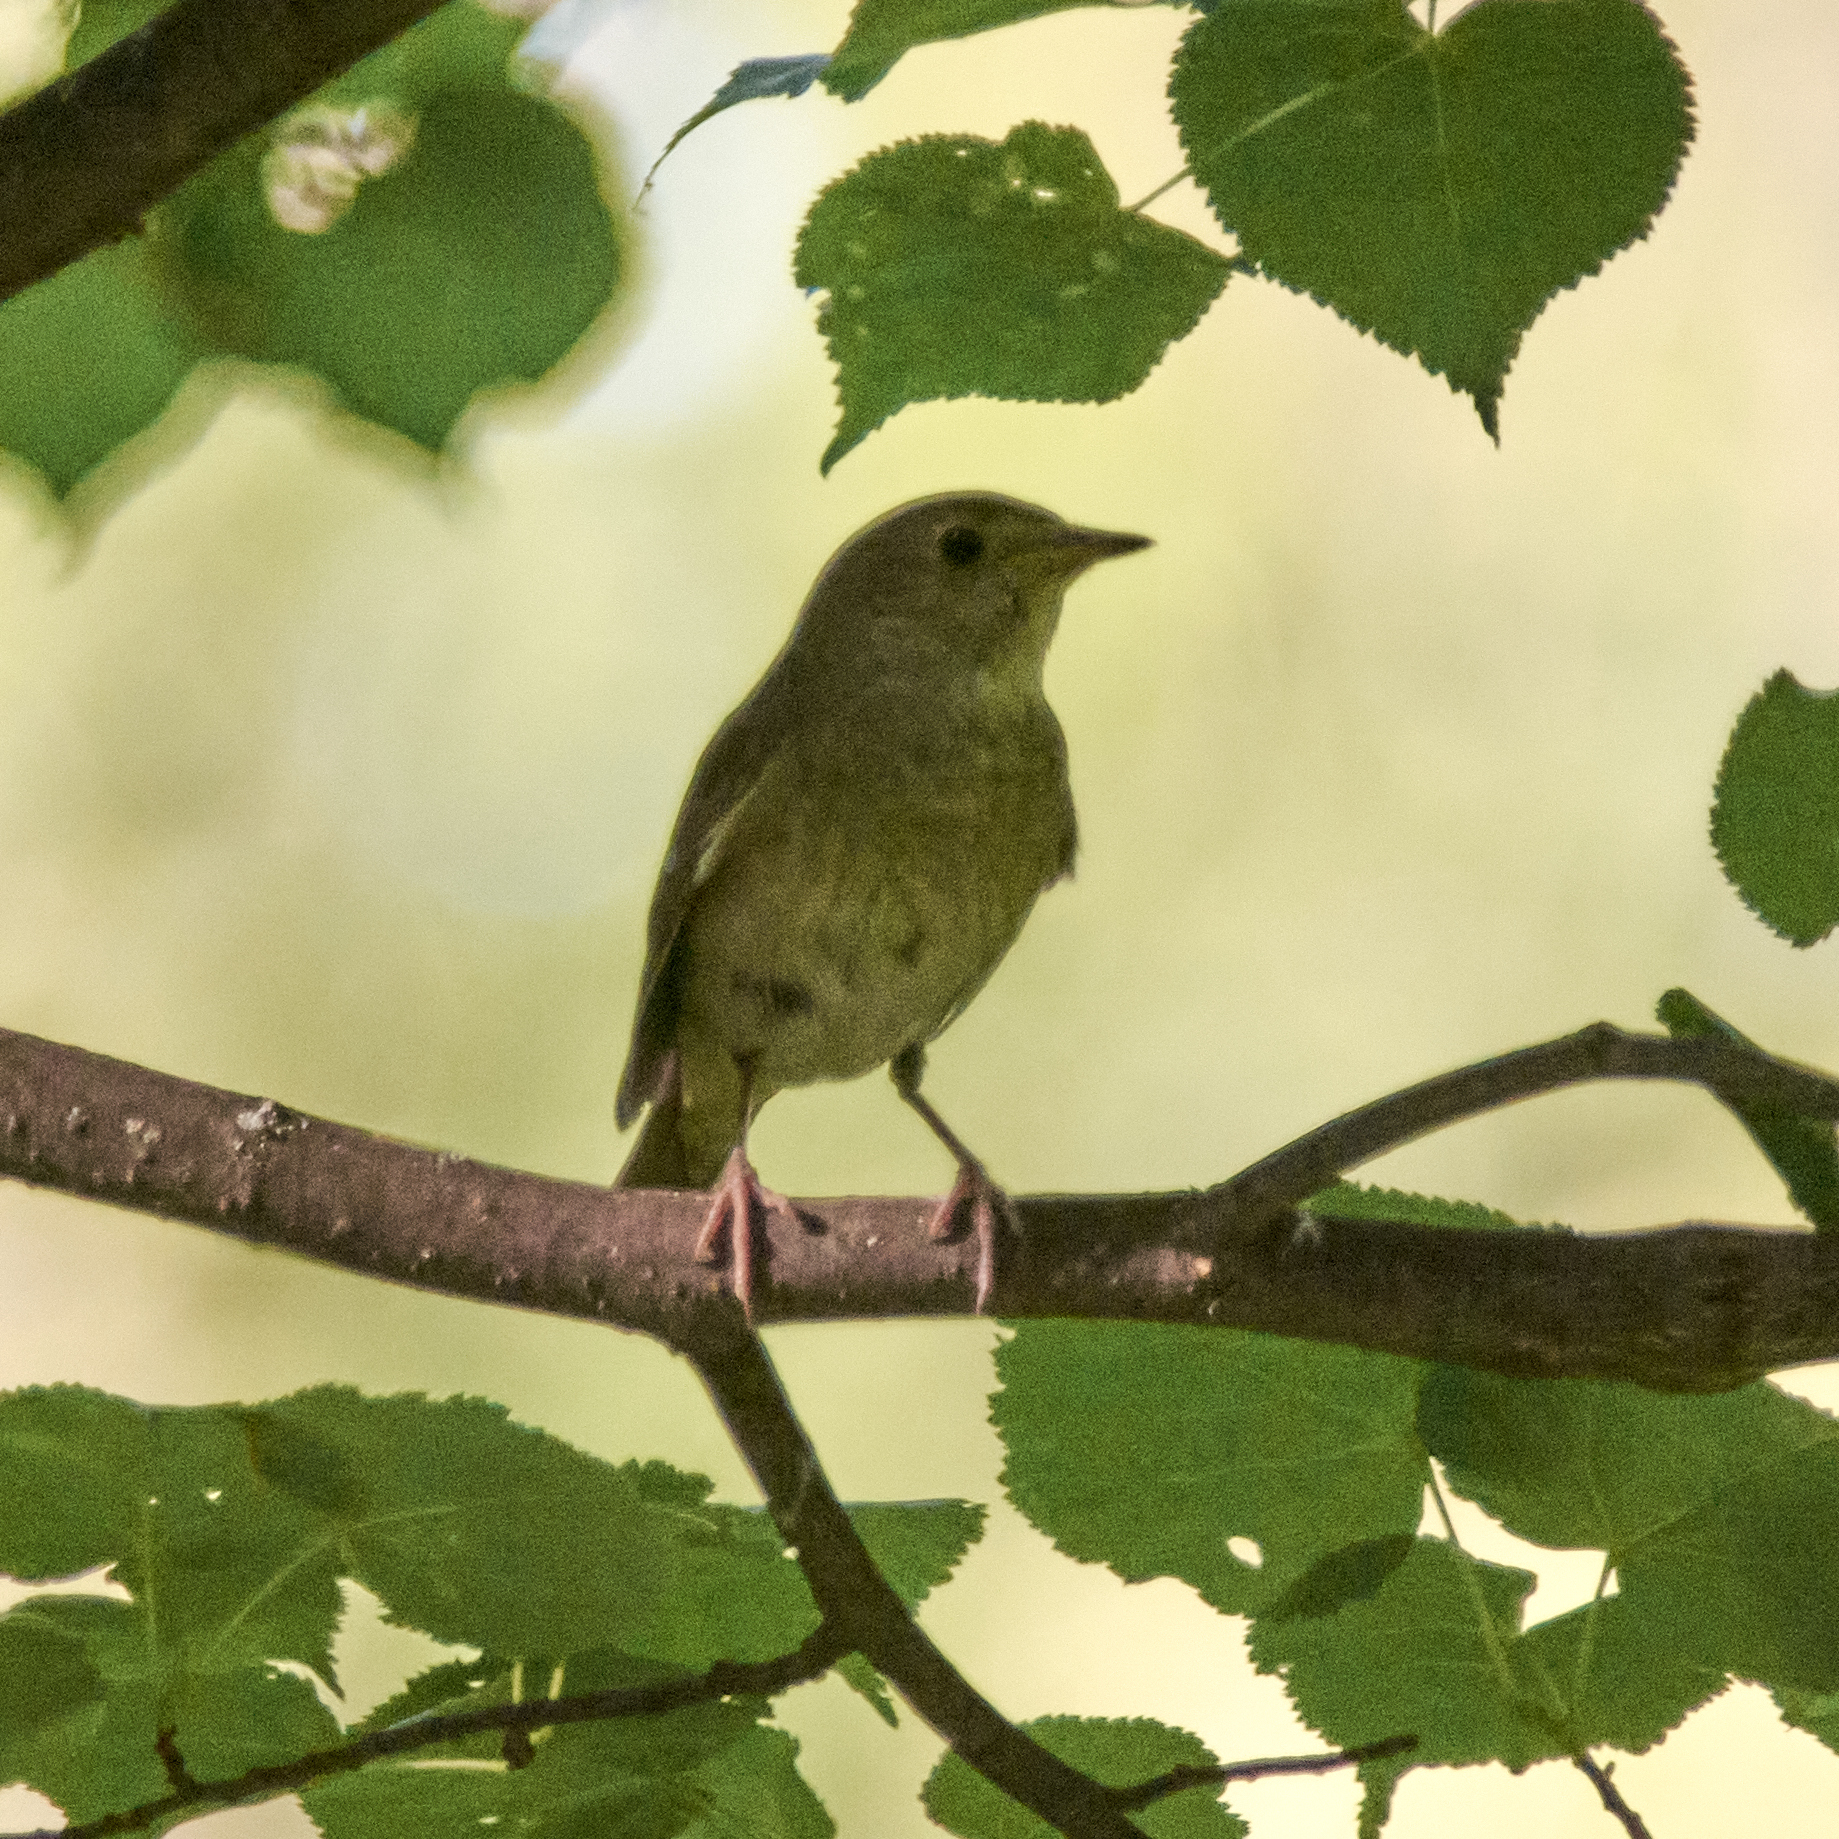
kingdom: Animalia
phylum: Chordata
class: Aves
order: Passeriformes
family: Muscicapidae
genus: Luscinia
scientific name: Luscinia luscinia
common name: Thrush nightingale
